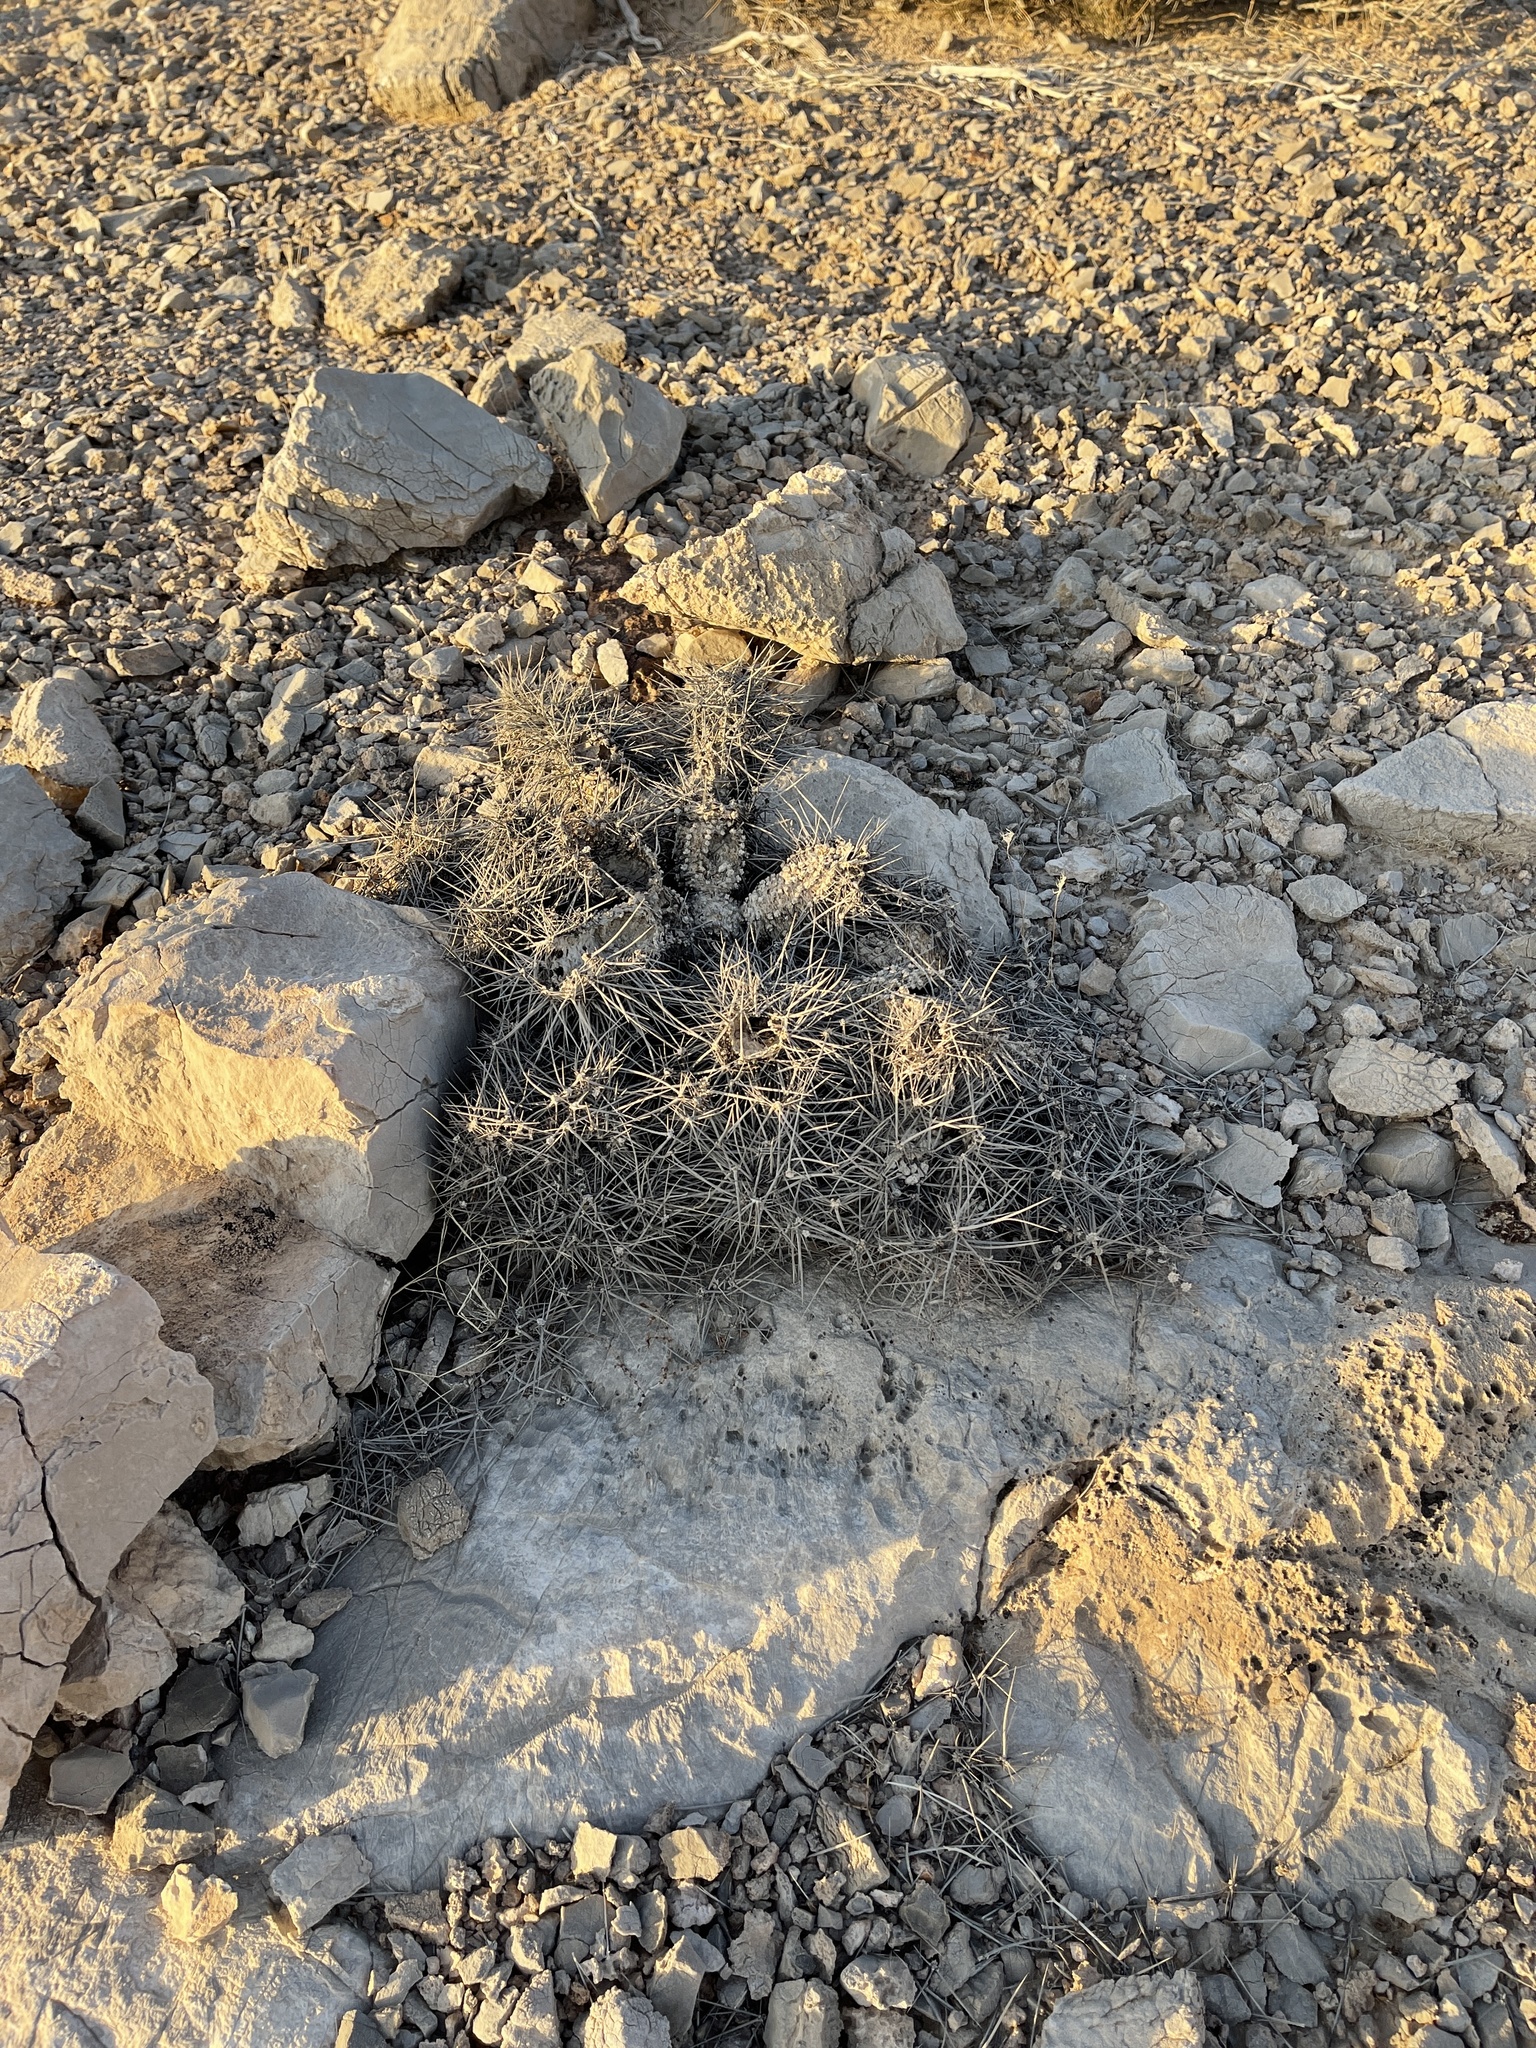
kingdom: Plantae
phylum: Tracheophyta
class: Magnoliopsida
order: Caryophyllales
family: Cactaceae
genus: Echinocereus
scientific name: Echinocereus engelmannii
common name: Engelmann's hedgehog cactus
